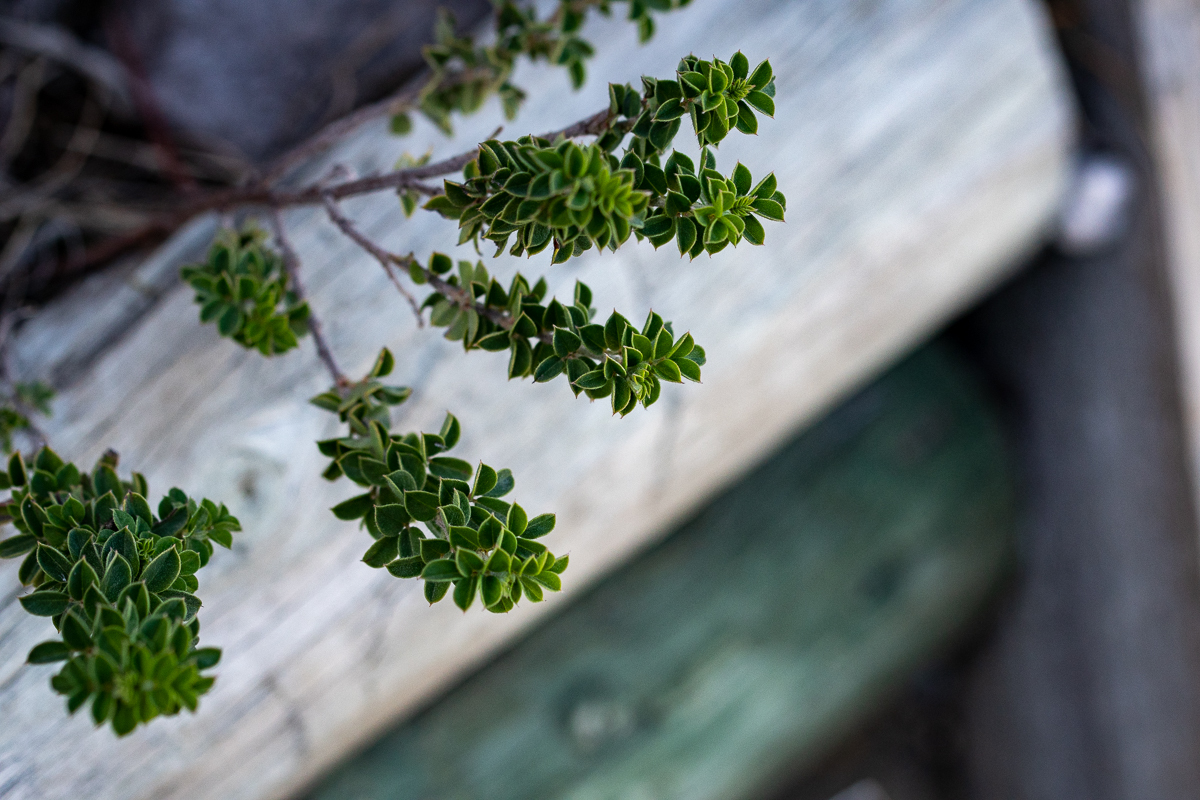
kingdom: Plantae
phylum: Tracheophyta
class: Magnoliopsida
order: Fabales
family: Fabaceae
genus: Indigofera
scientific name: Indigofera alopecuroides
